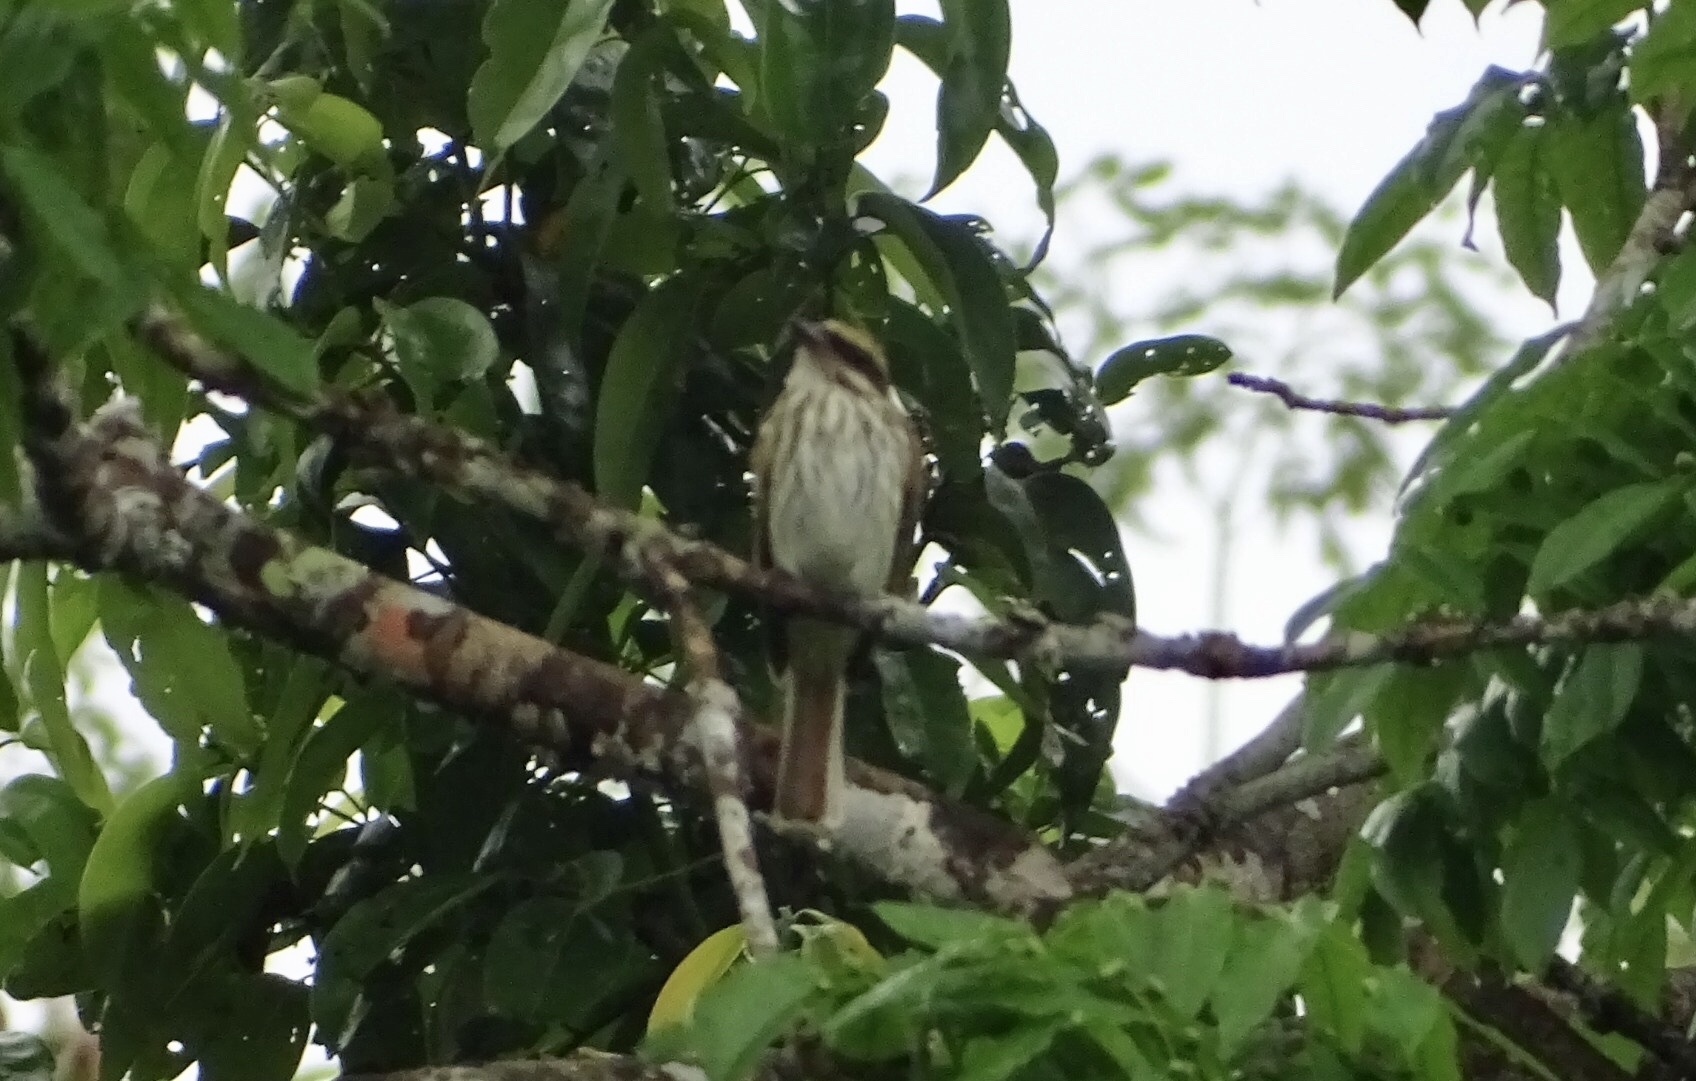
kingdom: Animalia
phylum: Chordata
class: Aves
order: Passeriformes
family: Tyrannidae
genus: Myiodynastes
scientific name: Myiodynastes maculatus
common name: Streaked flycatcher
